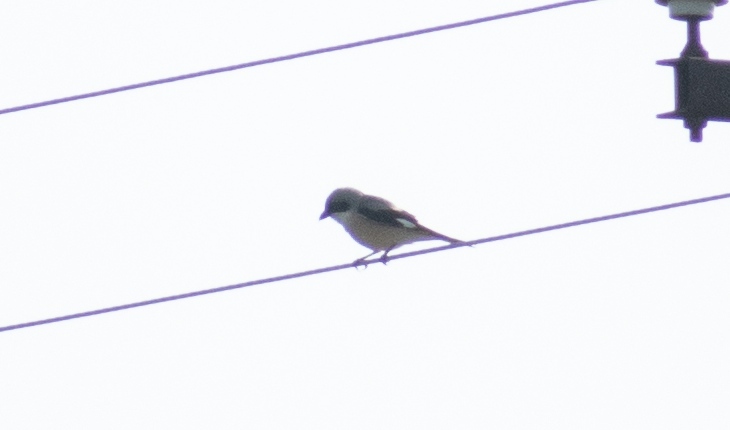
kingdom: Animalia
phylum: Chordata
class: Aves
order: Passeriformes
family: Laniidae
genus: Lanius
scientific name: Lanius minor
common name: Lesser grey shrike
